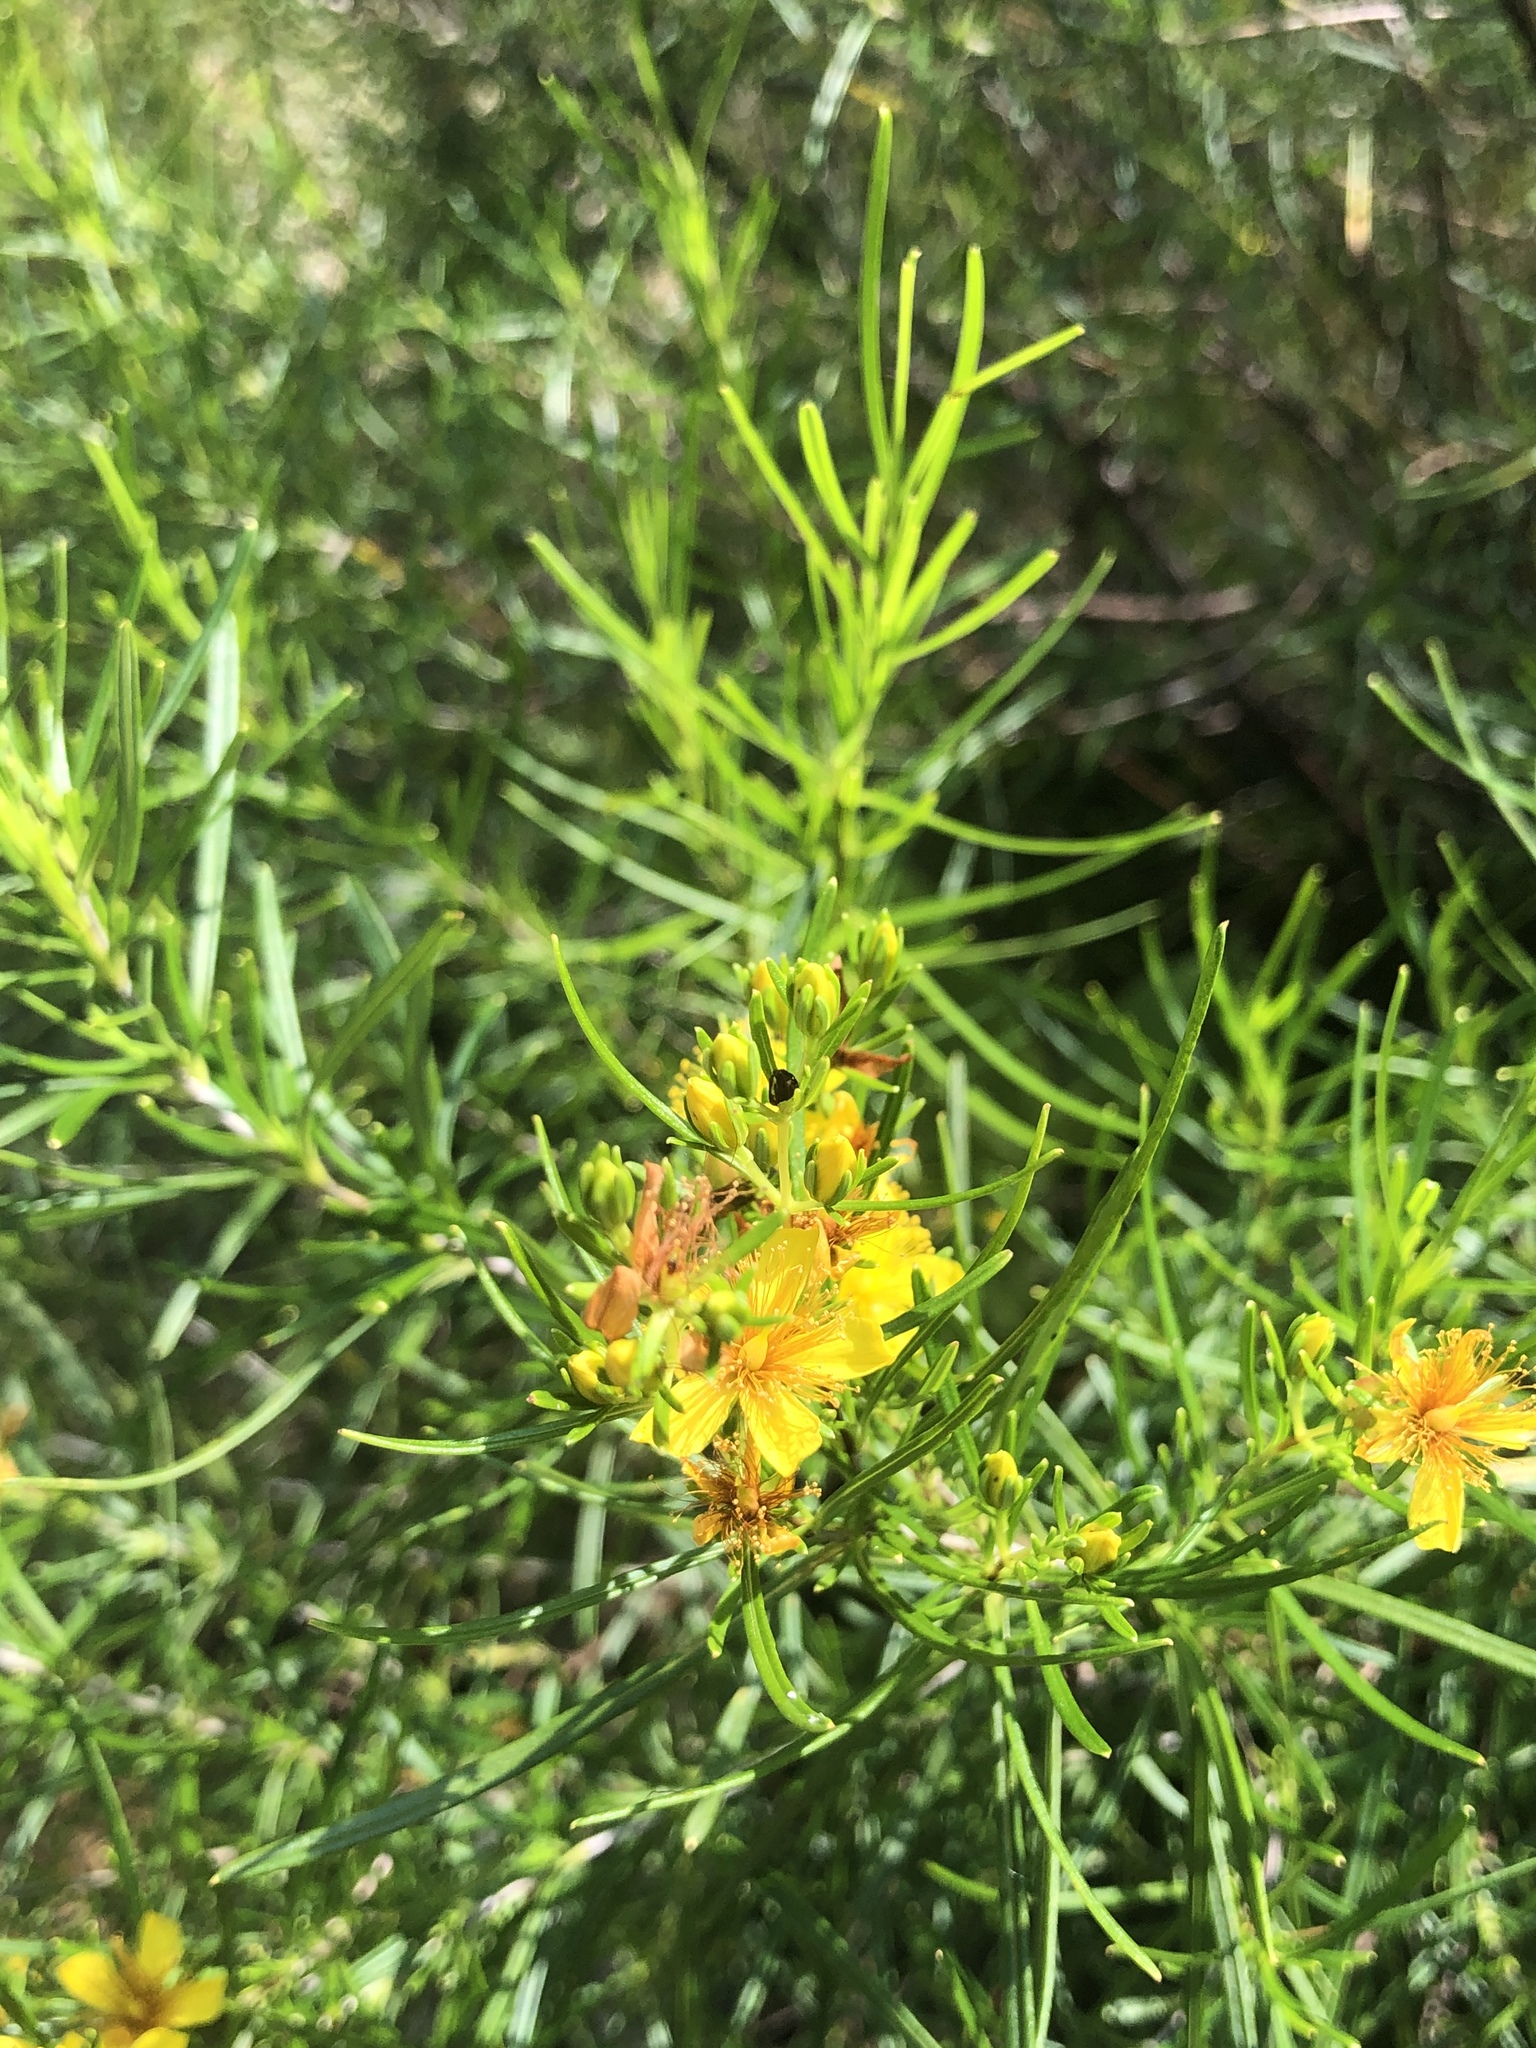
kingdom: Plantae
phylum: Tracheophyta
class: Magnoliopsida
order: Malpighiales
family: Hypericaceae
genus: Hypericum
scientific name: Hypericum densiflorum
